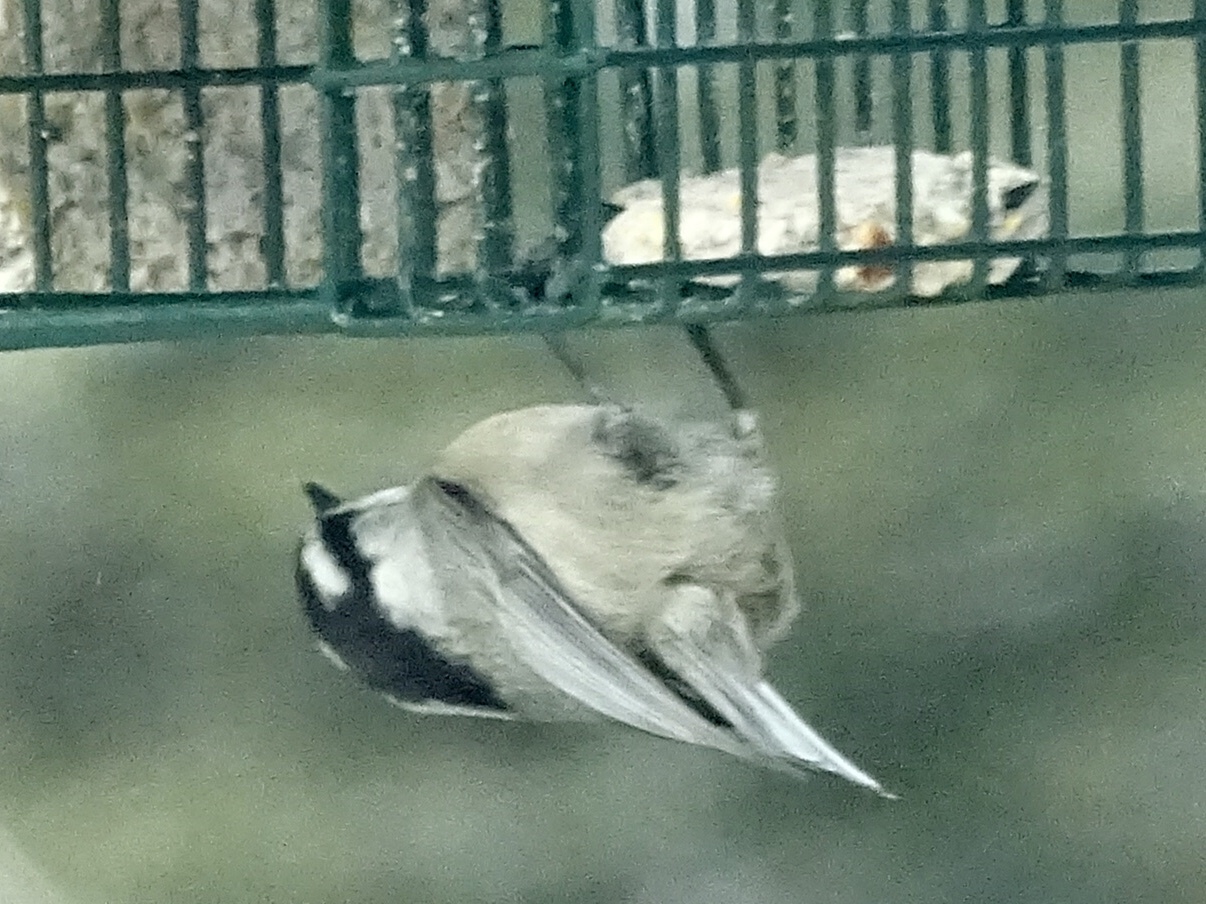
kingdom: Animalia
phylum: Chordata
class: Aves
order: Passeriformes
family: Paridae
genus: Poecile
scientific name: Poecile gambeli
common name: Mountain chickadee
